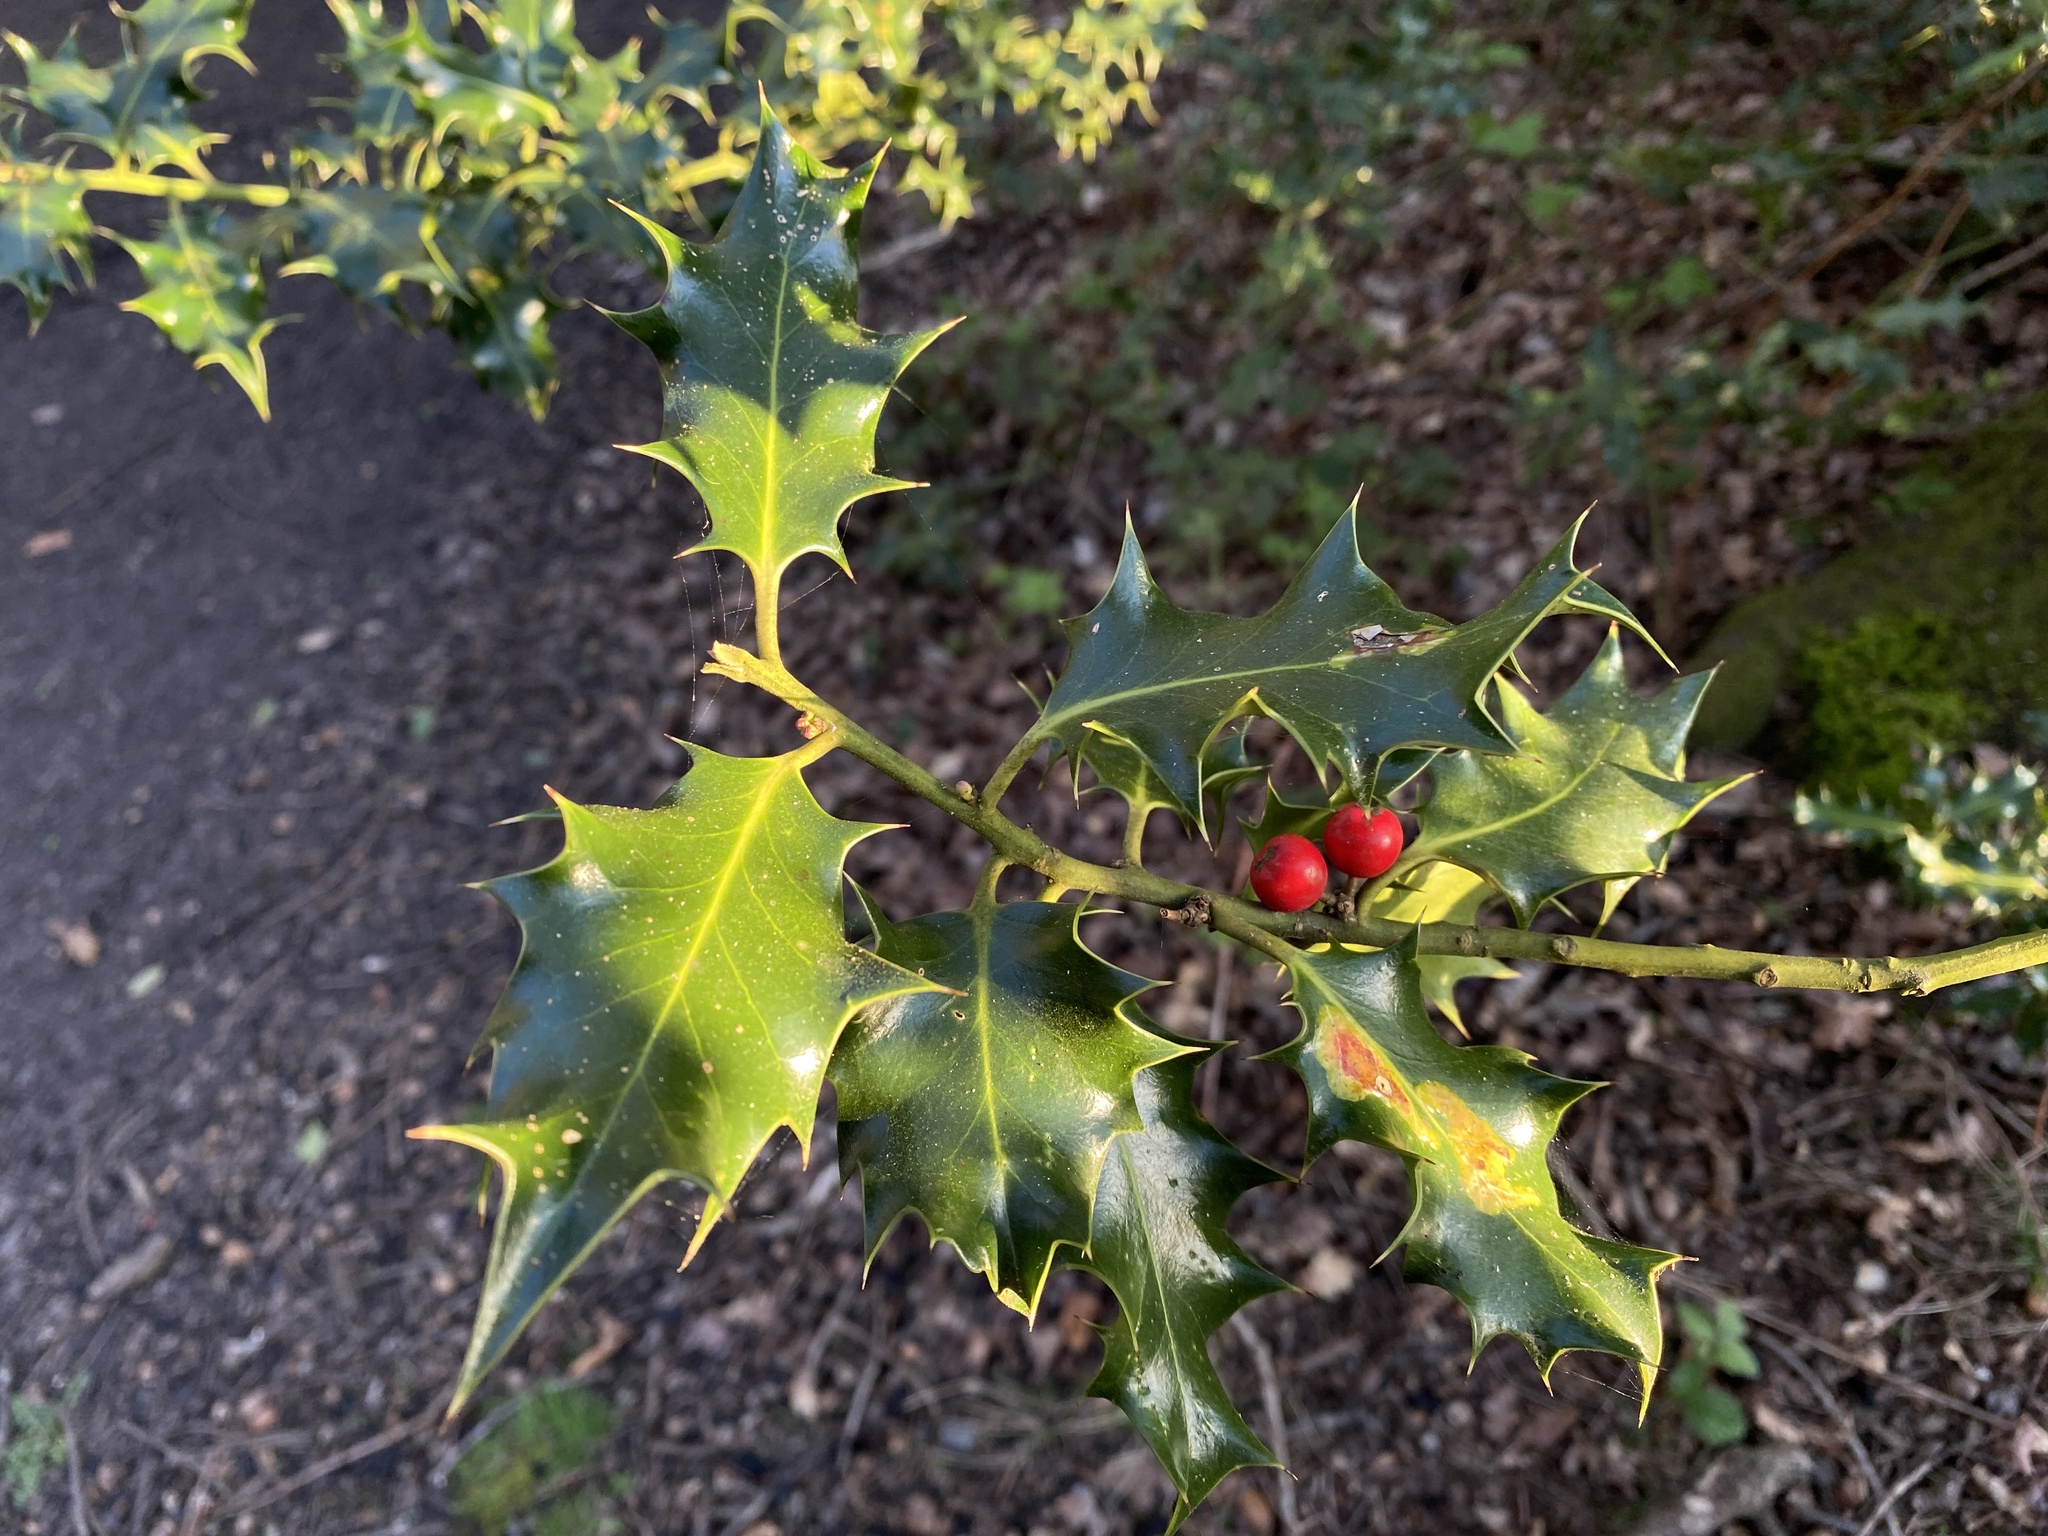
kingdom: Plantae
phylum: Tracheophyta
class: Magnoliopsida
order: Aquifoliales
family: Aquifoliaceae
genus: Ilex
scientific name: Ilex aquifolium
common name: English holly
